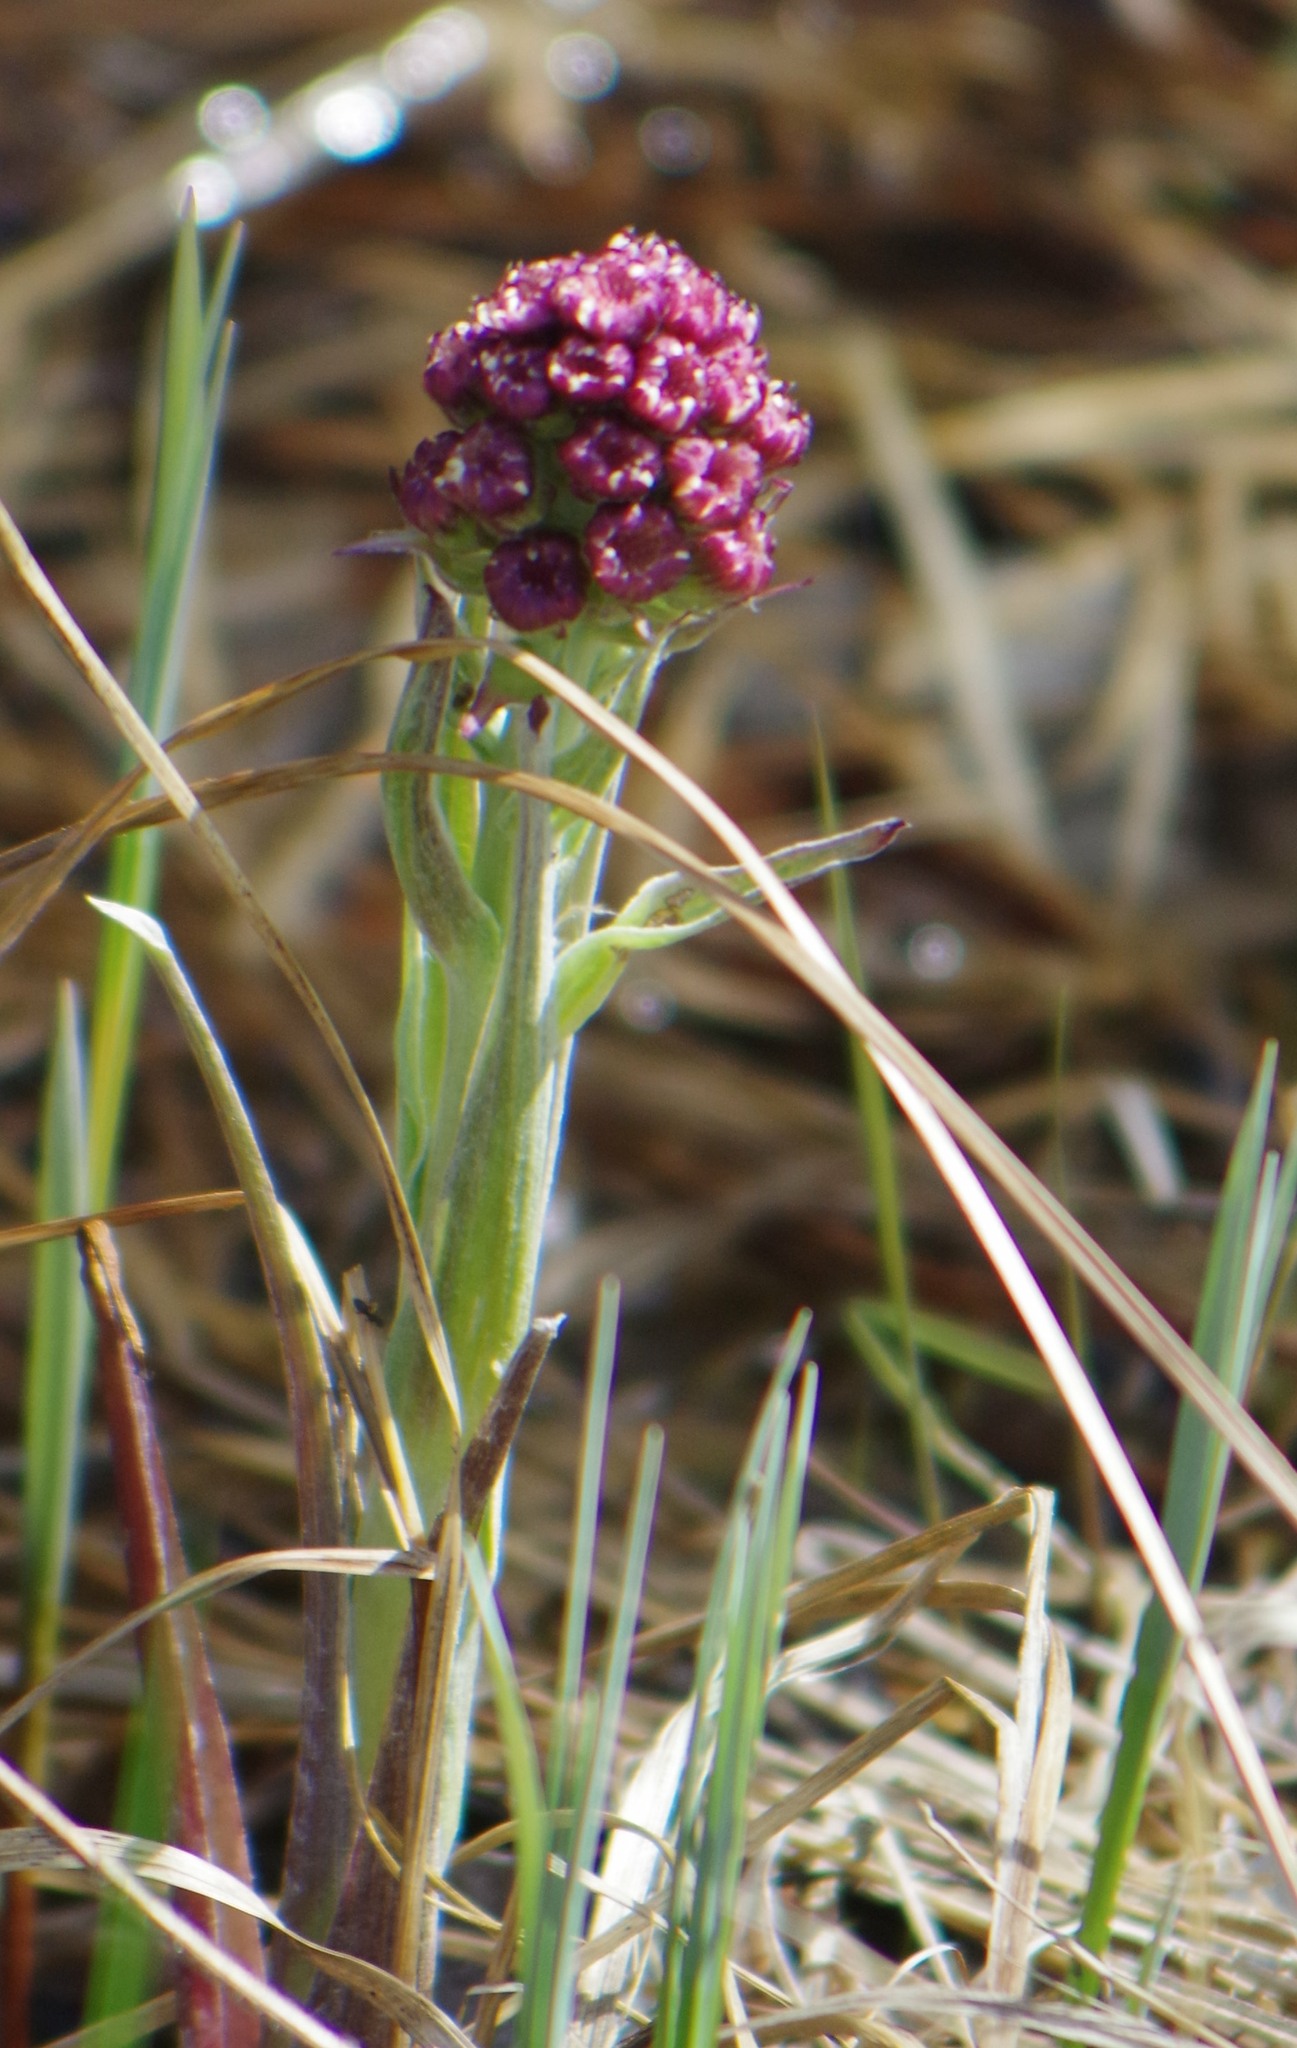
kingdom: Plantae
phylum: Tracheophyta
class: Magnoliopsida
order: Asterales
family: Asteraceae
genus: Petasites
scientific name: Petasites frigidus
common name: Arctic butterbur
